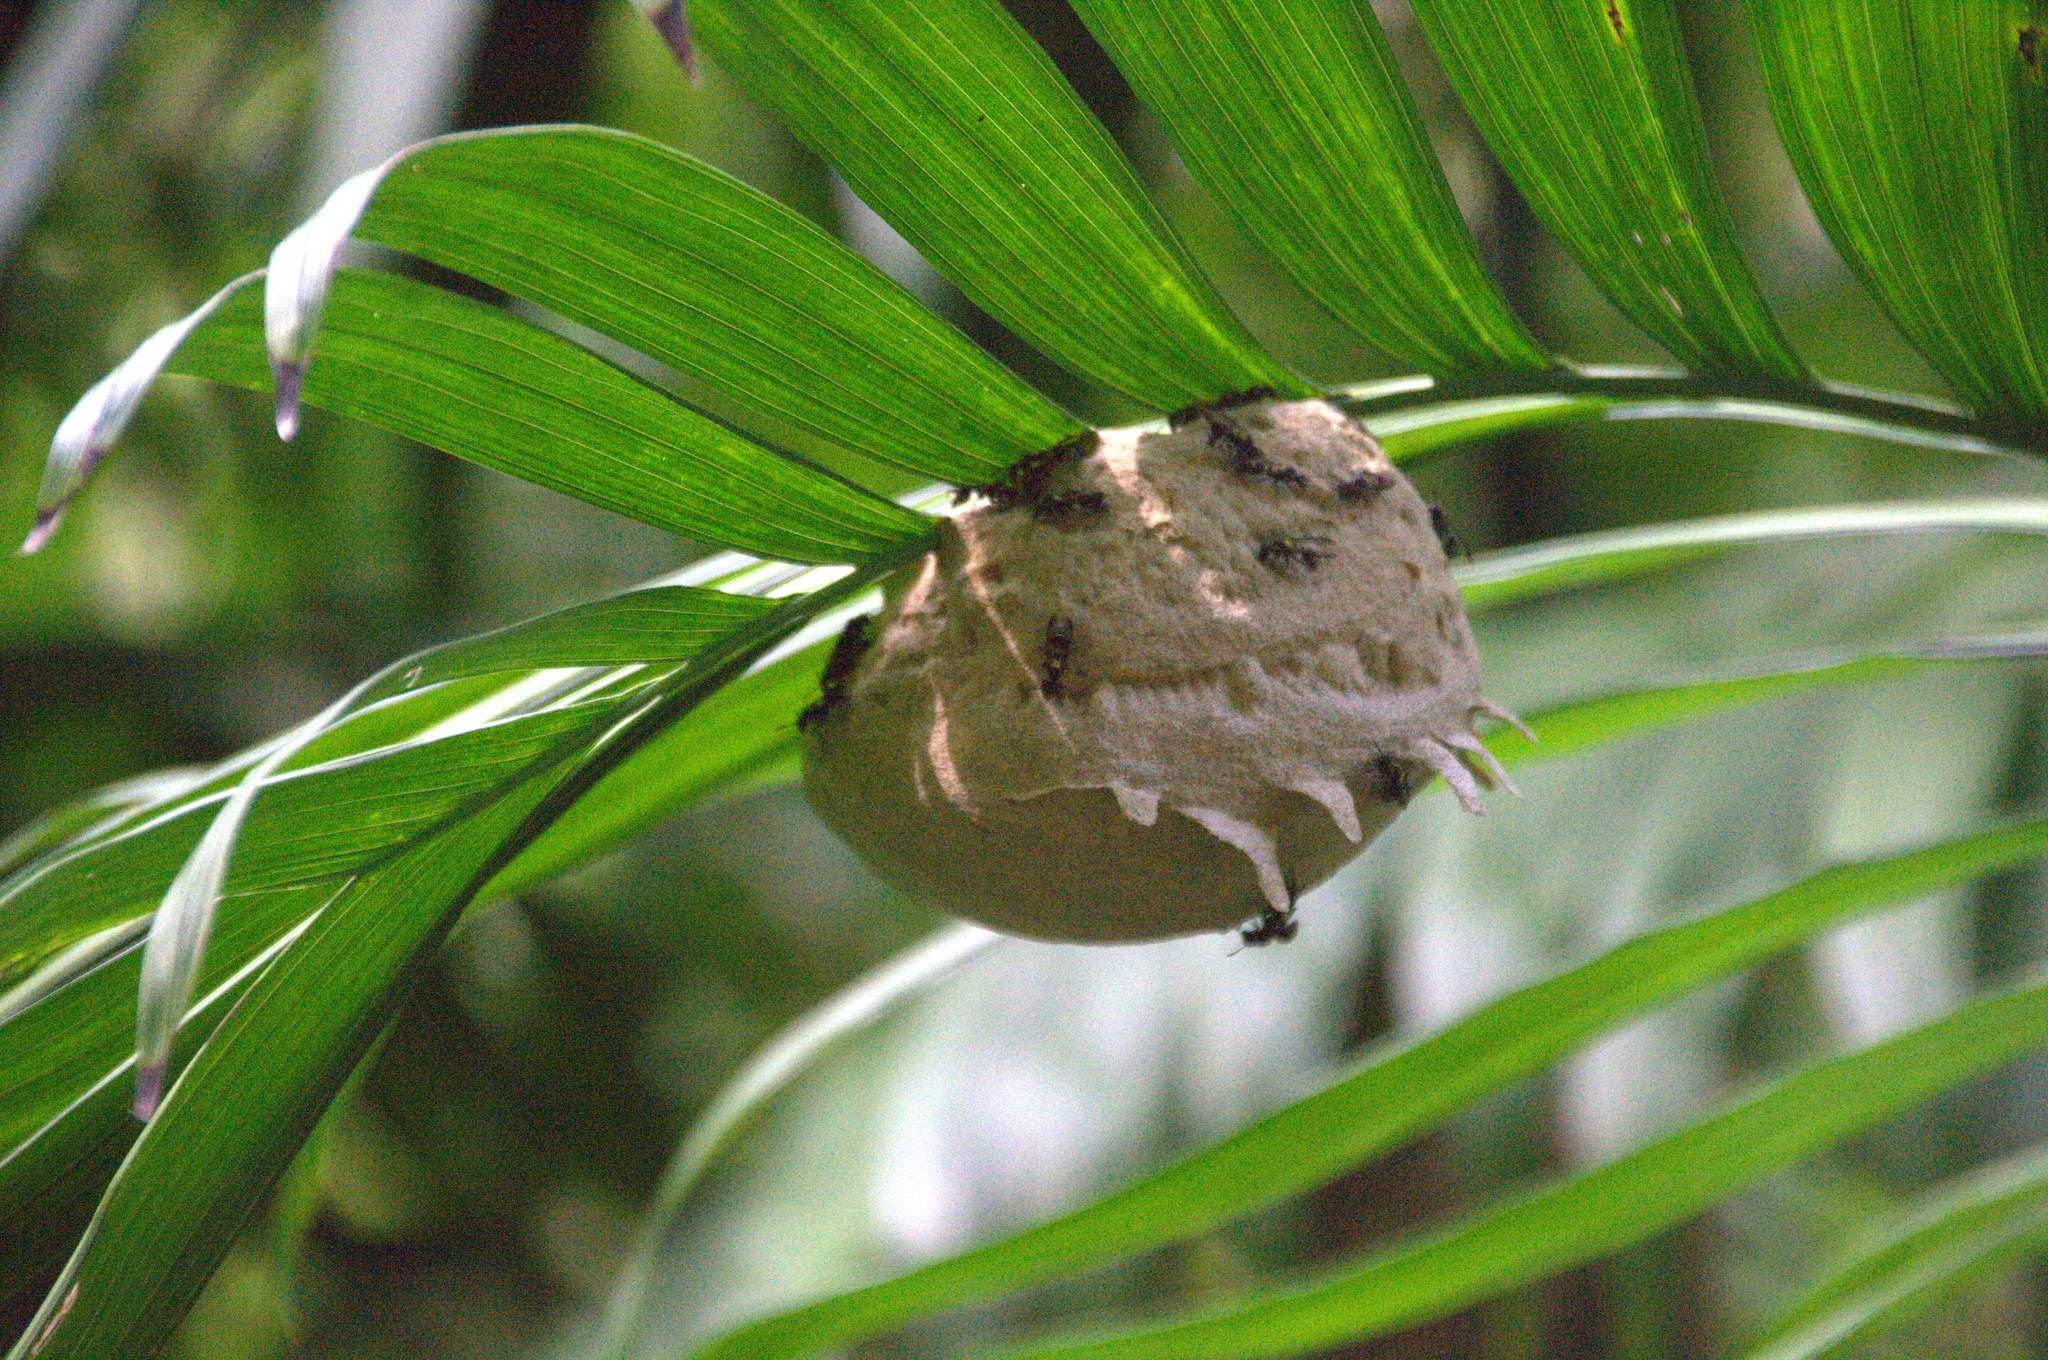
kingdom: Animalia
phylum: Arthropoda
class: Insecta
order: Hymenoptera
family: Eumenidae
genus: Polybia
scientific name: Polybia occidentalis
